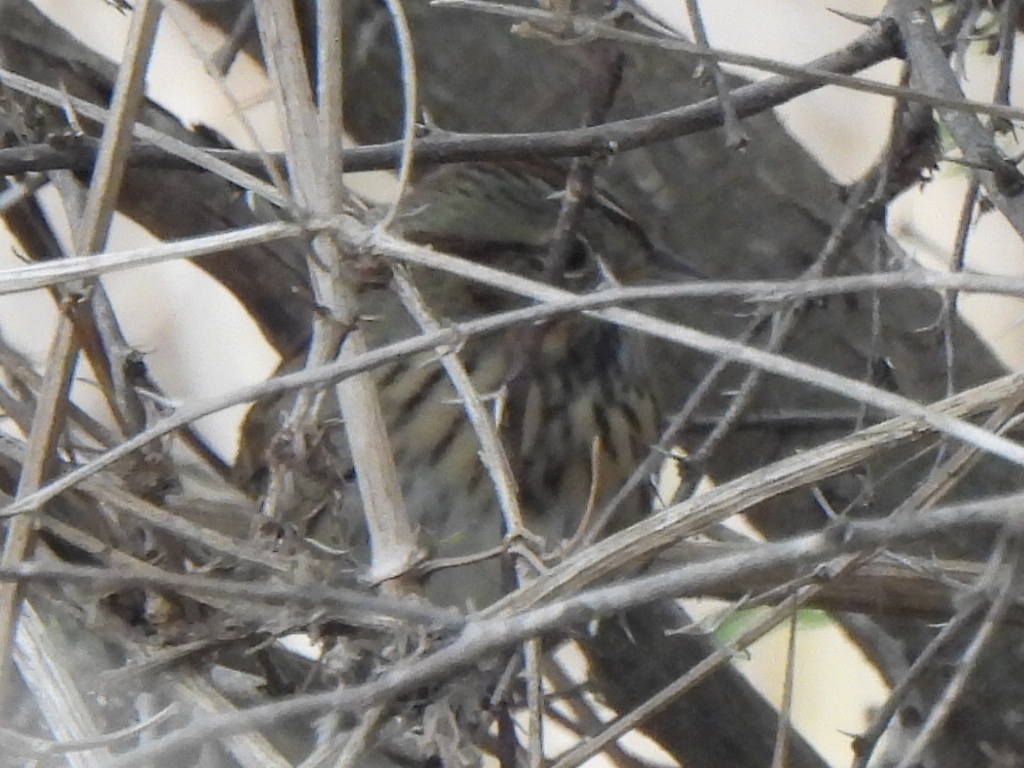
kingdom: Animalia
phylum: Chordata
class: Aves
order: Passeriformes
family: Passerellidae
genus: Melospiza
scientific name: Melospiza lincolnii
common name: Lincoln's sparrow
